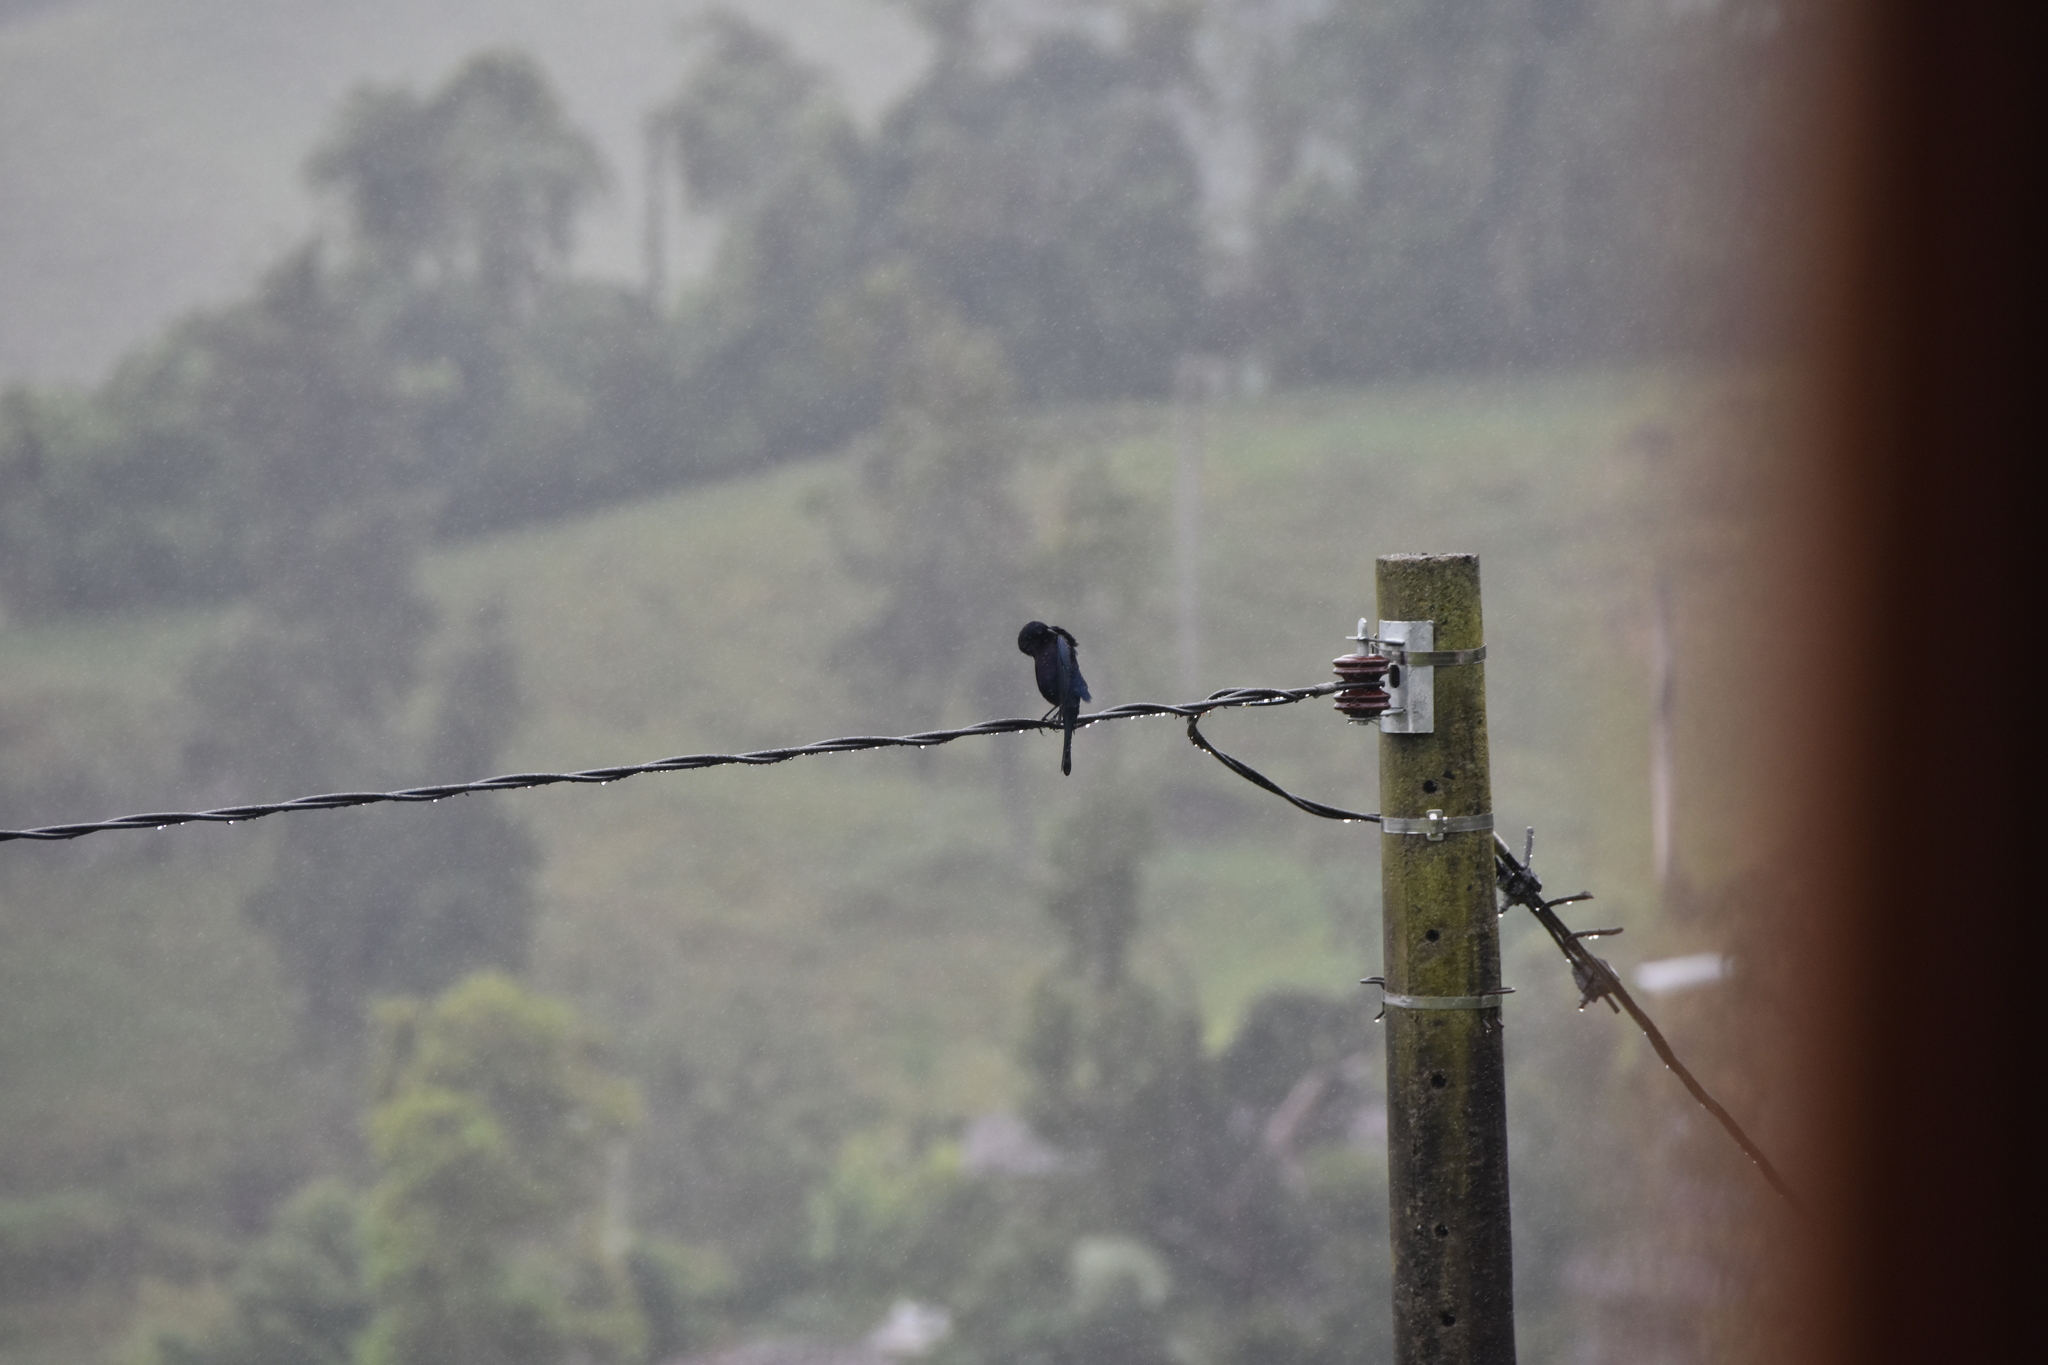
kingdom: Animalia
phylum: Chordata
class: Aves
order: Passeriformes
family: Icteridae
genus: Molothrus
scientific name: Molothrus bonariensis
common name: Shiny cowbird
